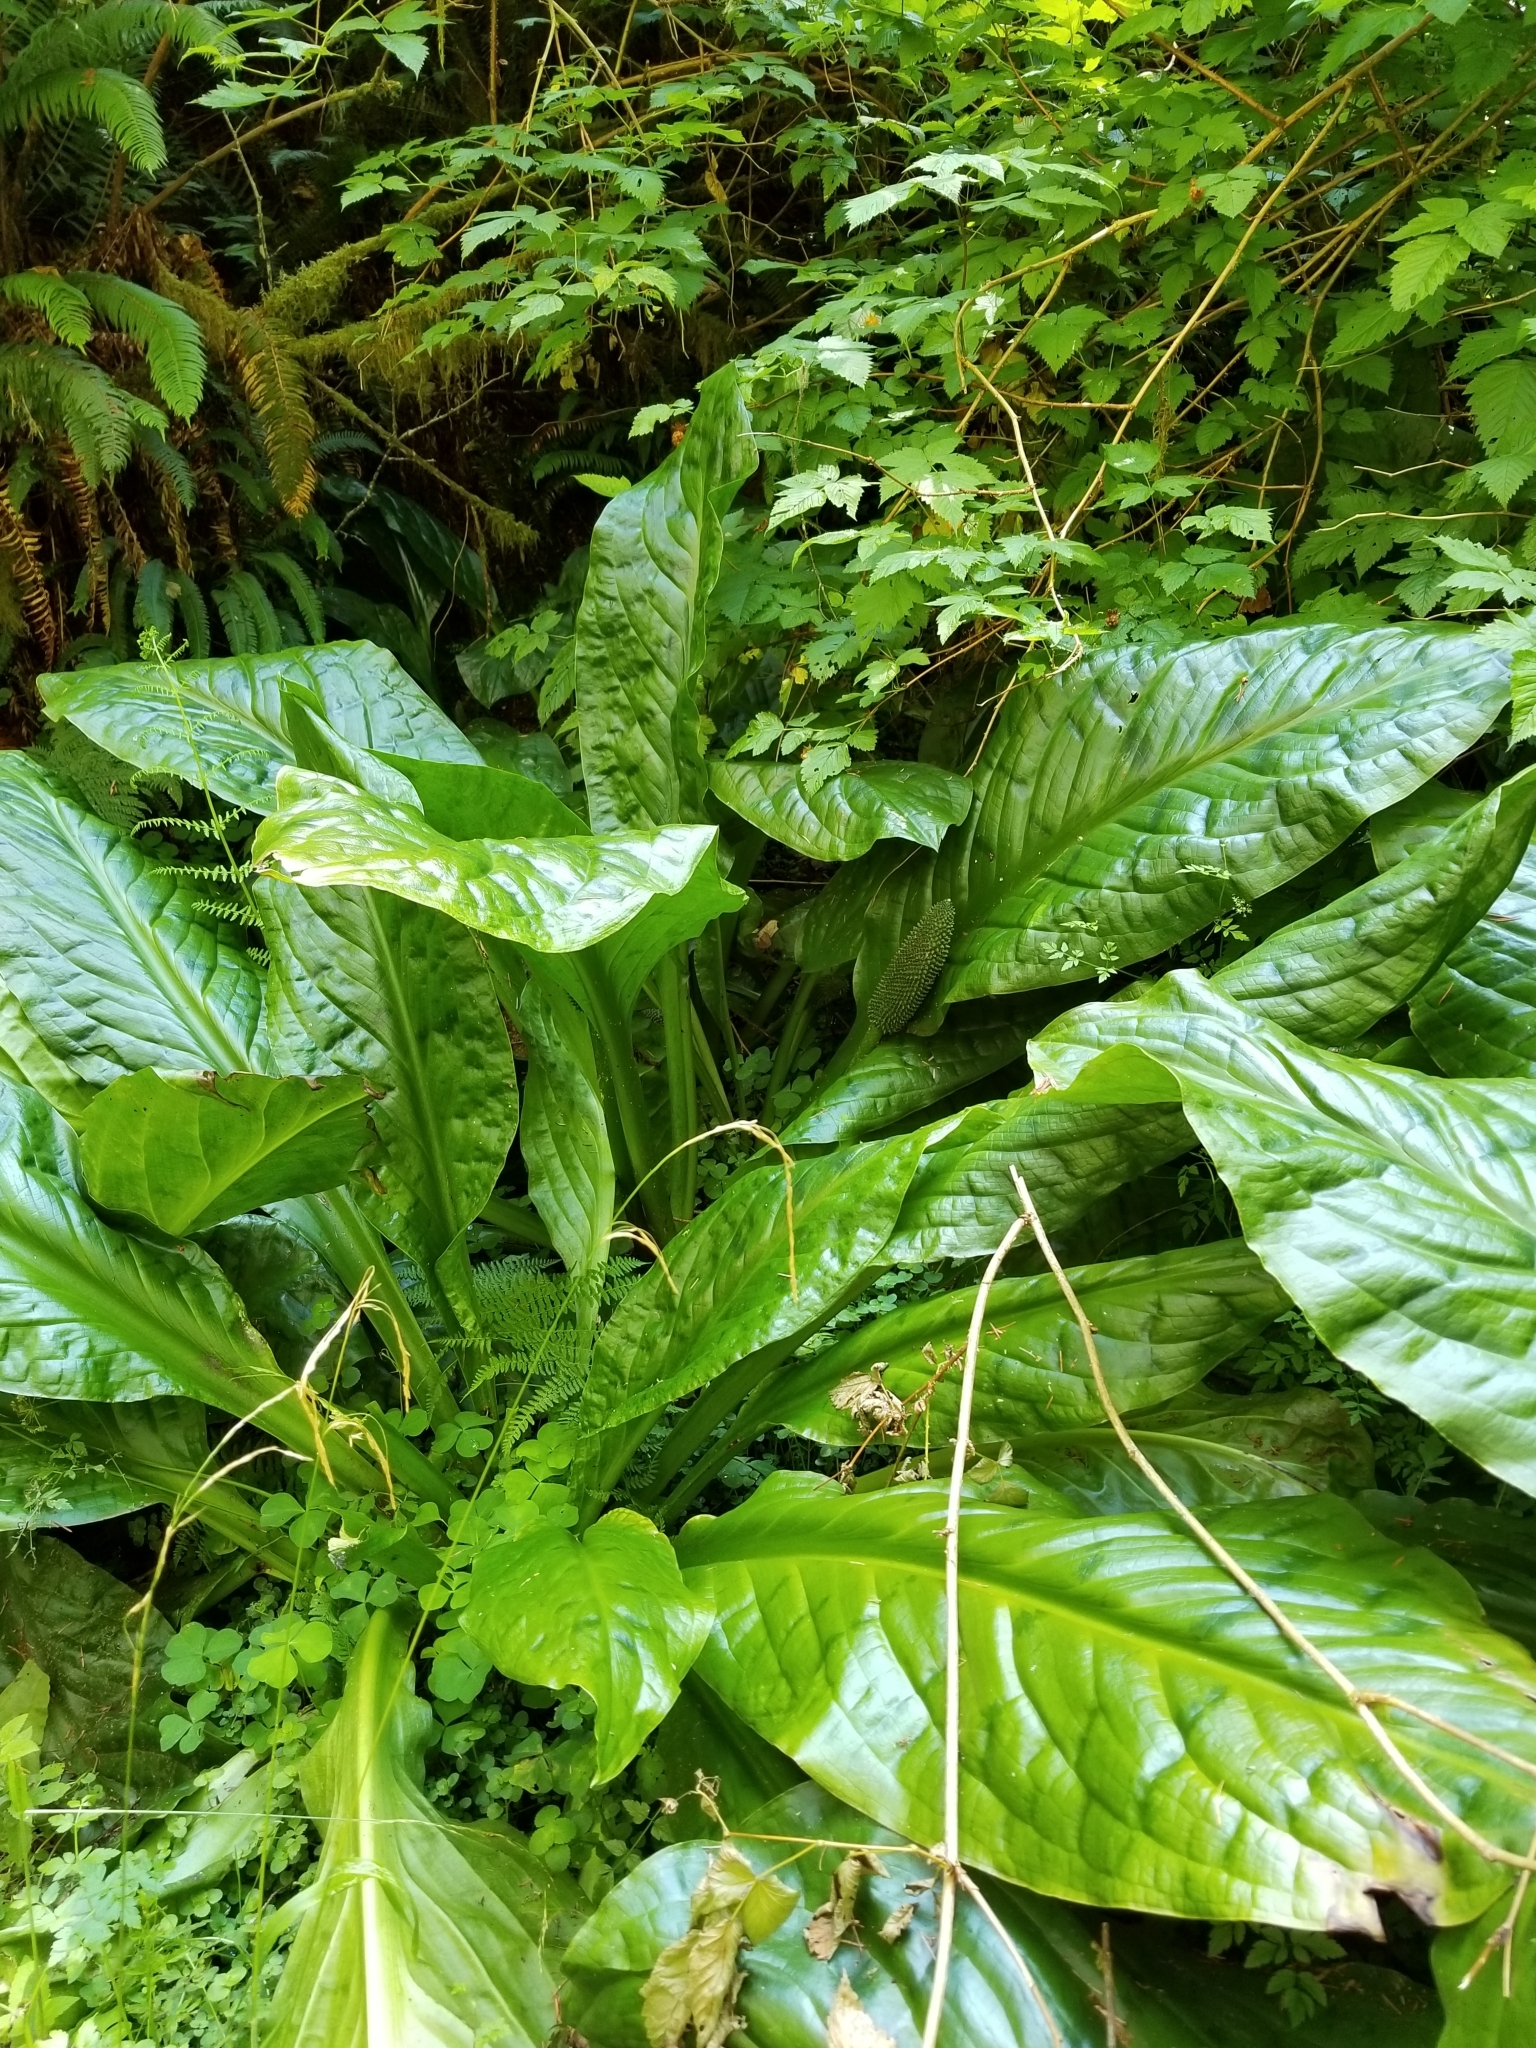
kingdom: Plantae
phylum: Tracheophyta
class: Liliopsida
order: Alismatales
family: Araceae
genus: Lysichiton
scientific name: Lysichiton americanus
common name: American skunk cabbage
